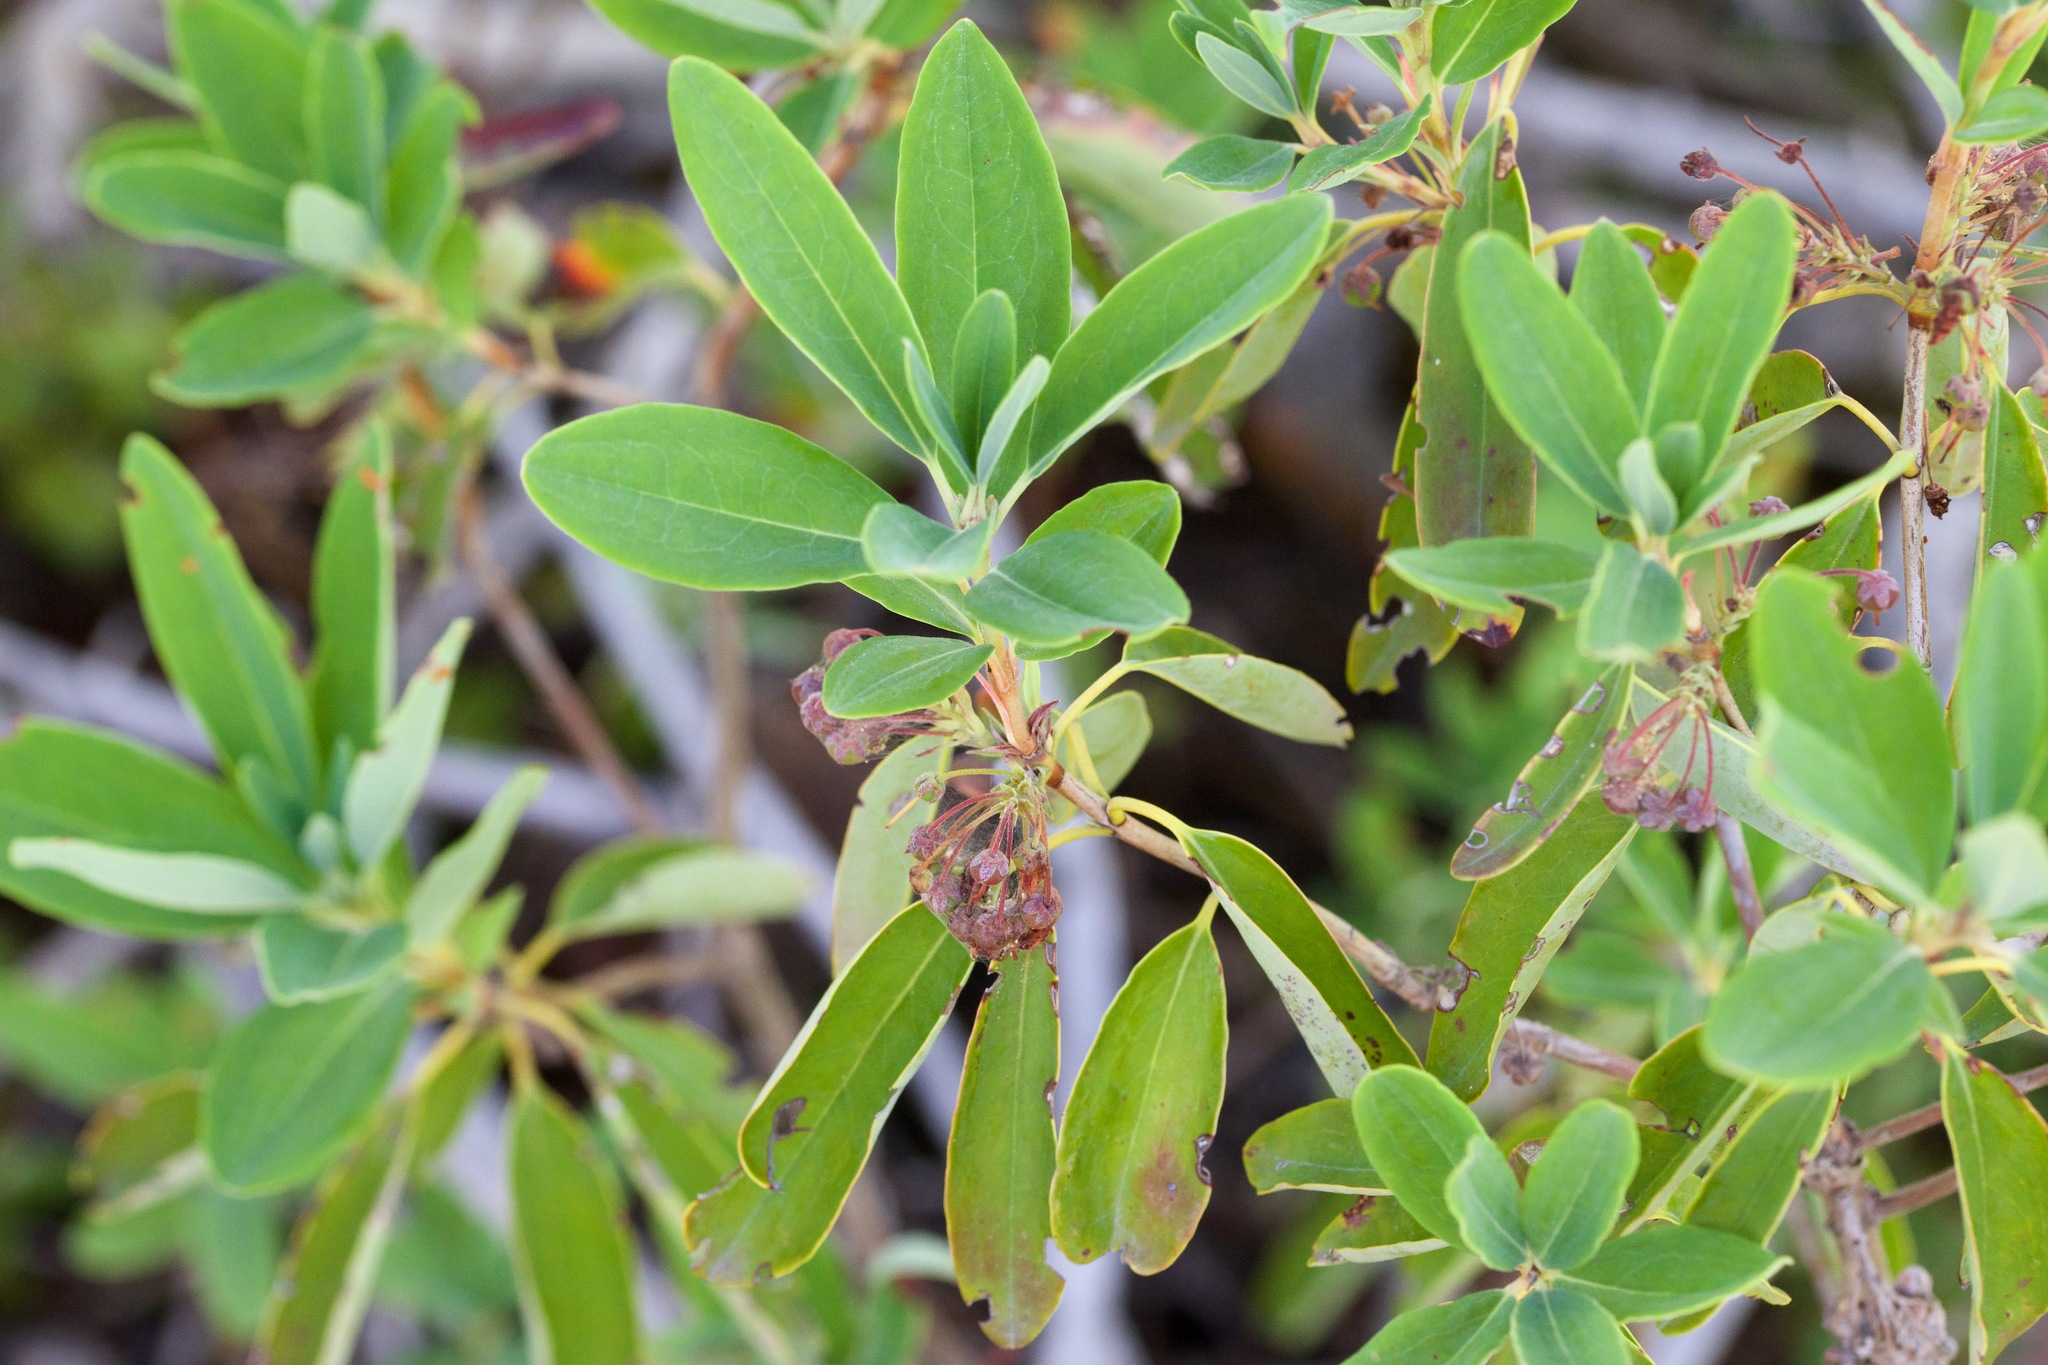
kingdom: Plantae
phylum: Tracheophyta
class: Magnoliopsida
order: Ericales
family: Ericaceae
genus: Kalmia
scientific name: Kalmia angustifolia
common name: Sheep-laurel
